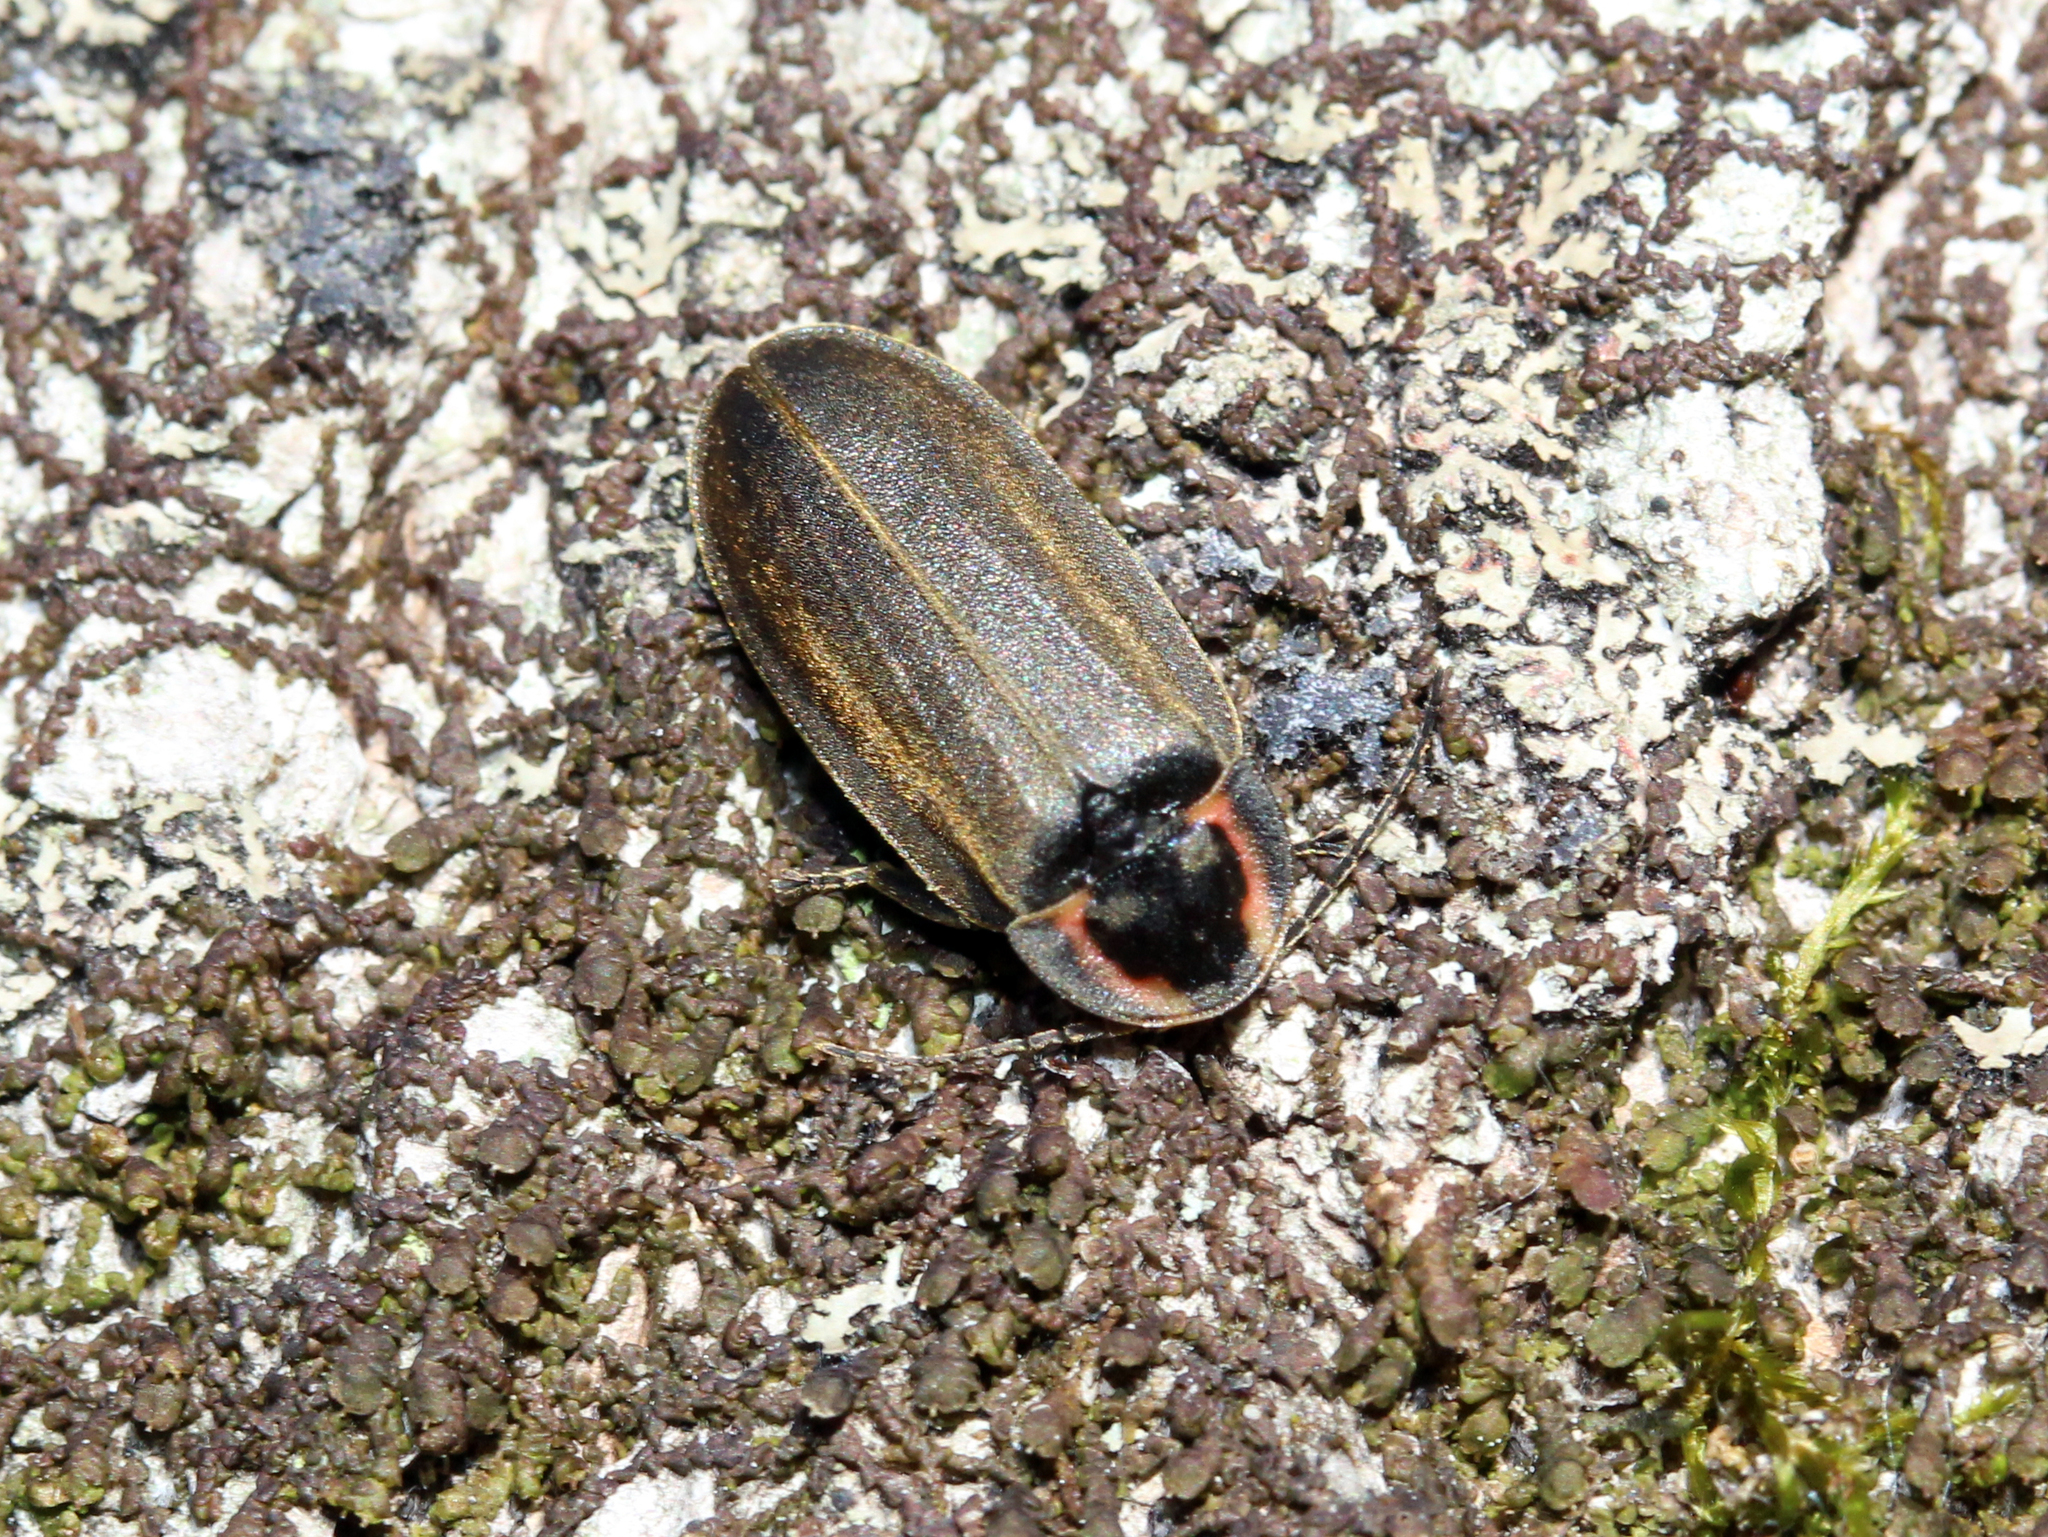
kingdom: Animalia
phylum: Arthropoda
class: Insecta
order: Coleoptera
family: Lampyridae
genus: Photinus
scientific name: Photinus corrusca
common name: Winter firefly
